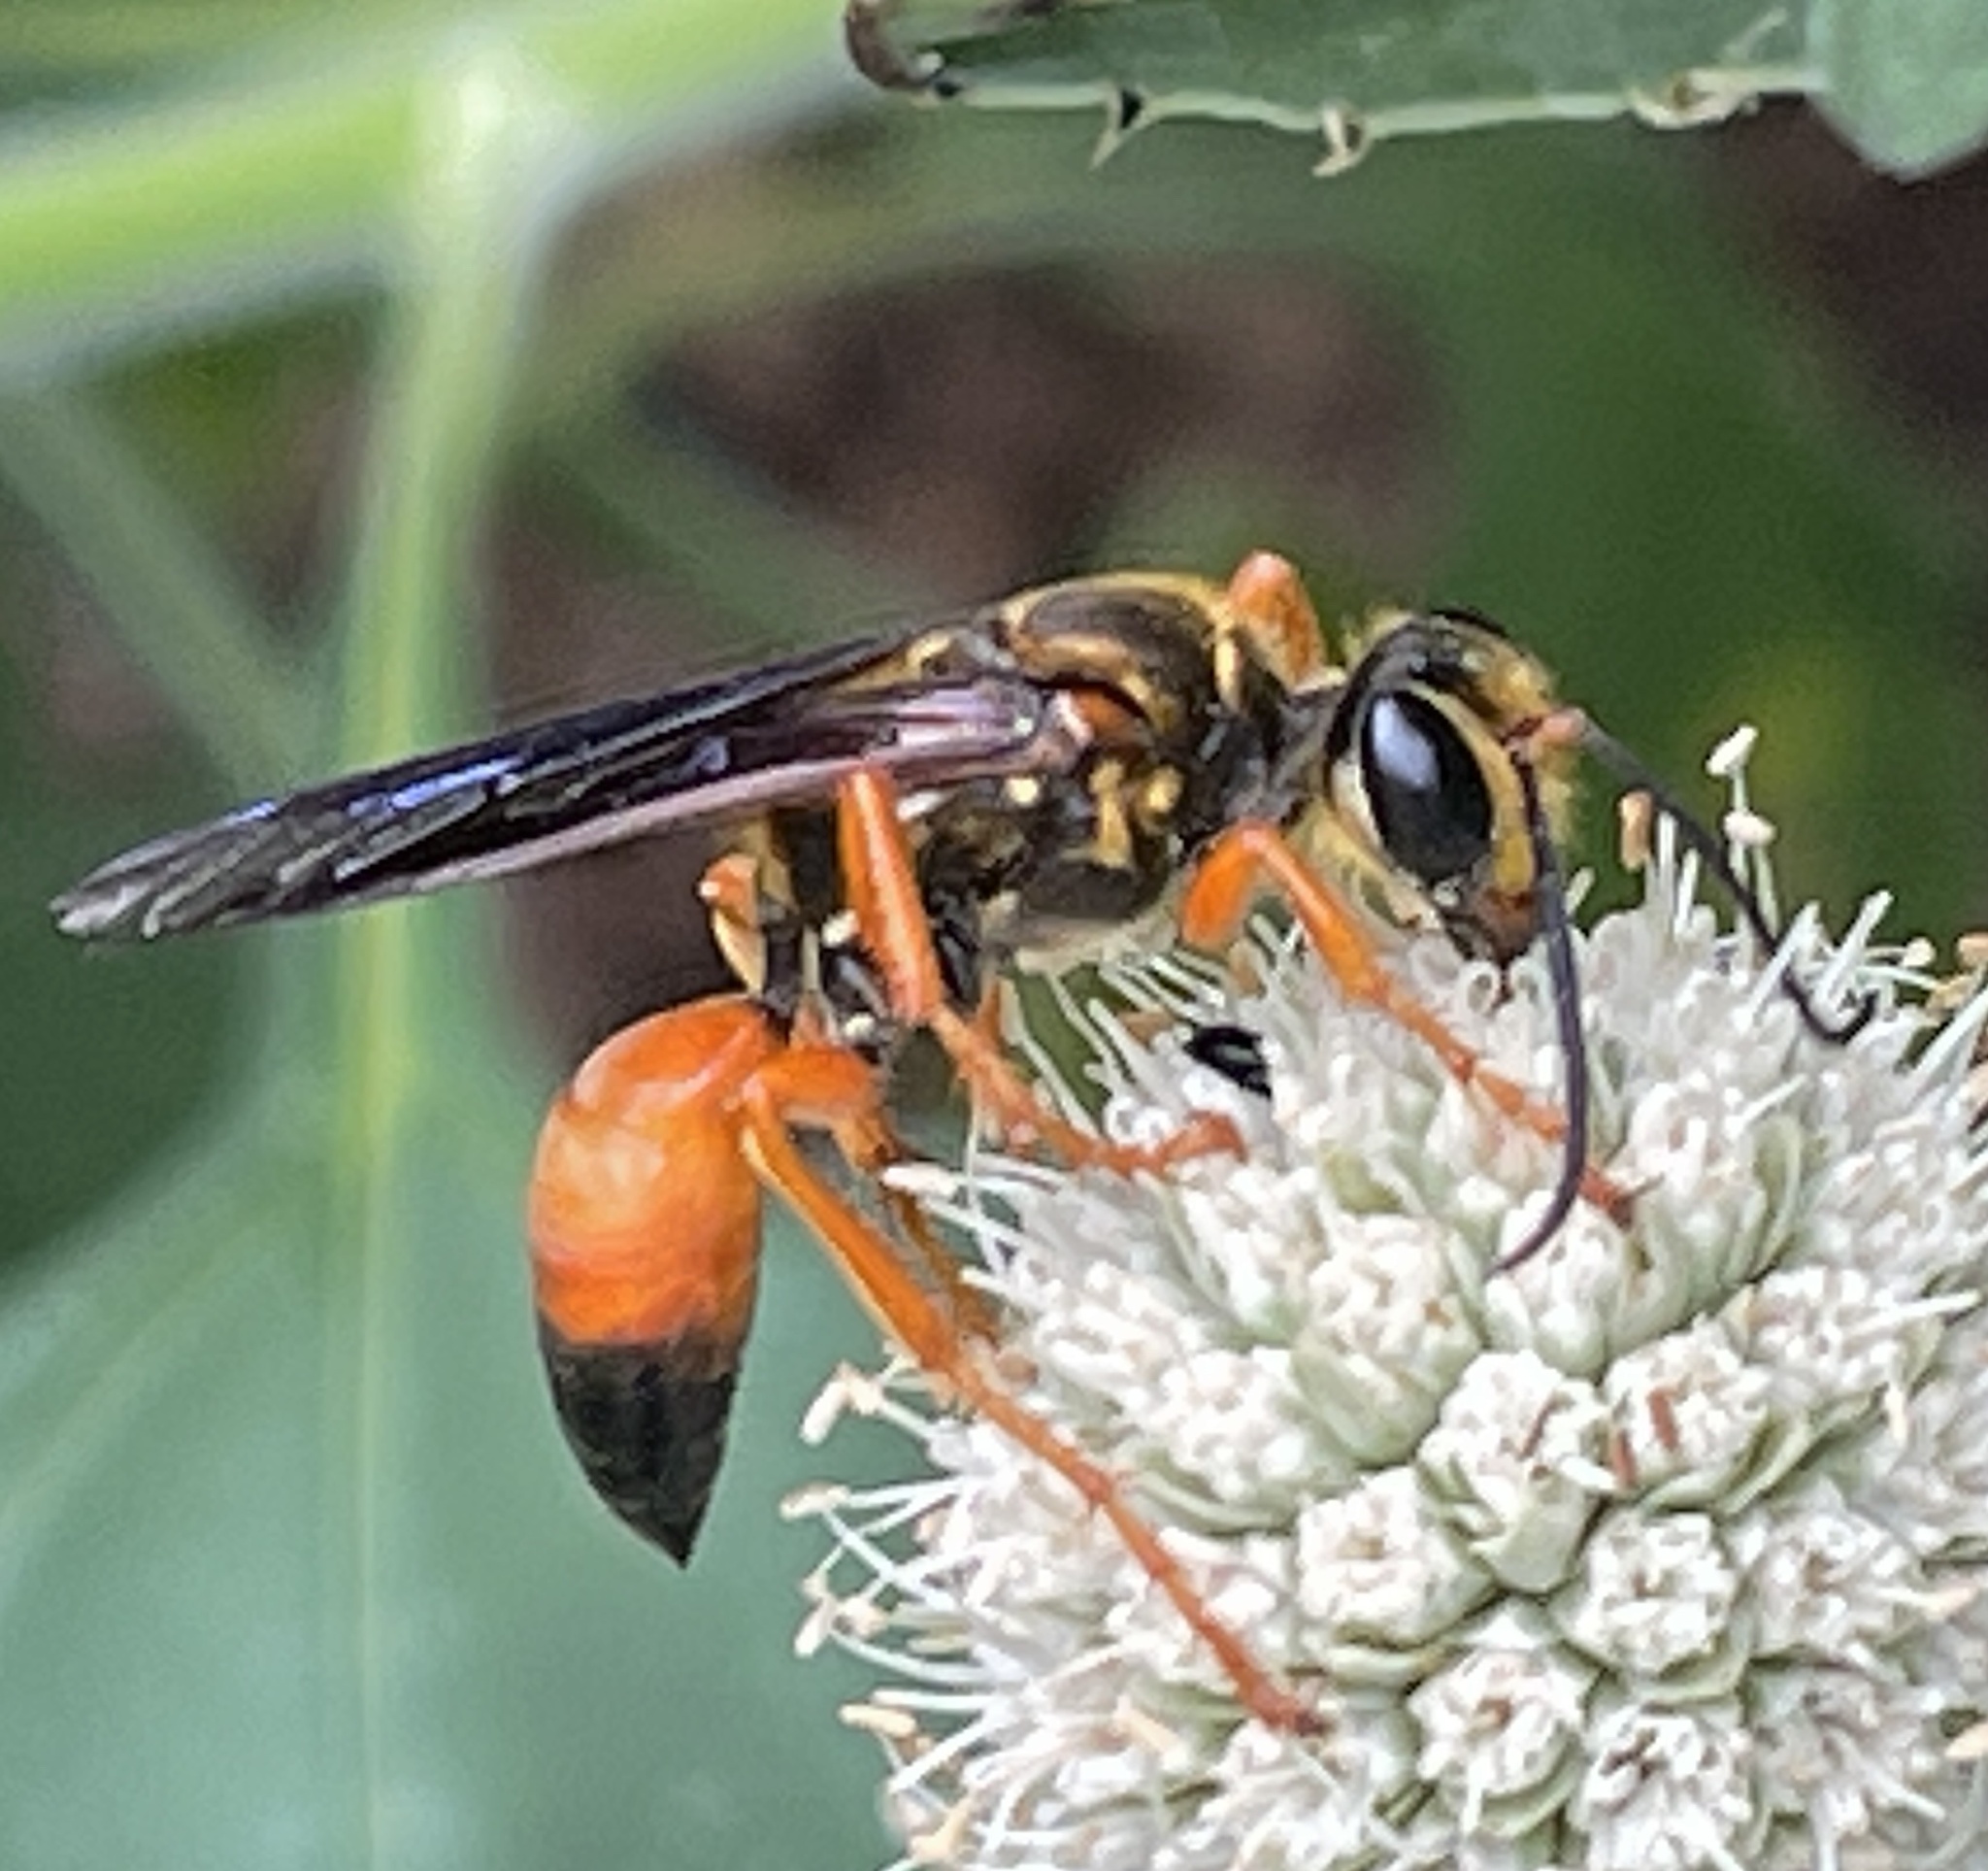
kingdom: Animalia
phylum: Arthropoda
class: Insecta
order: Hymenoptera
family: Sphecidae
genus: Sphex
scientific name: Sphex ichneumoneus
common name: Great golden digger wasp
